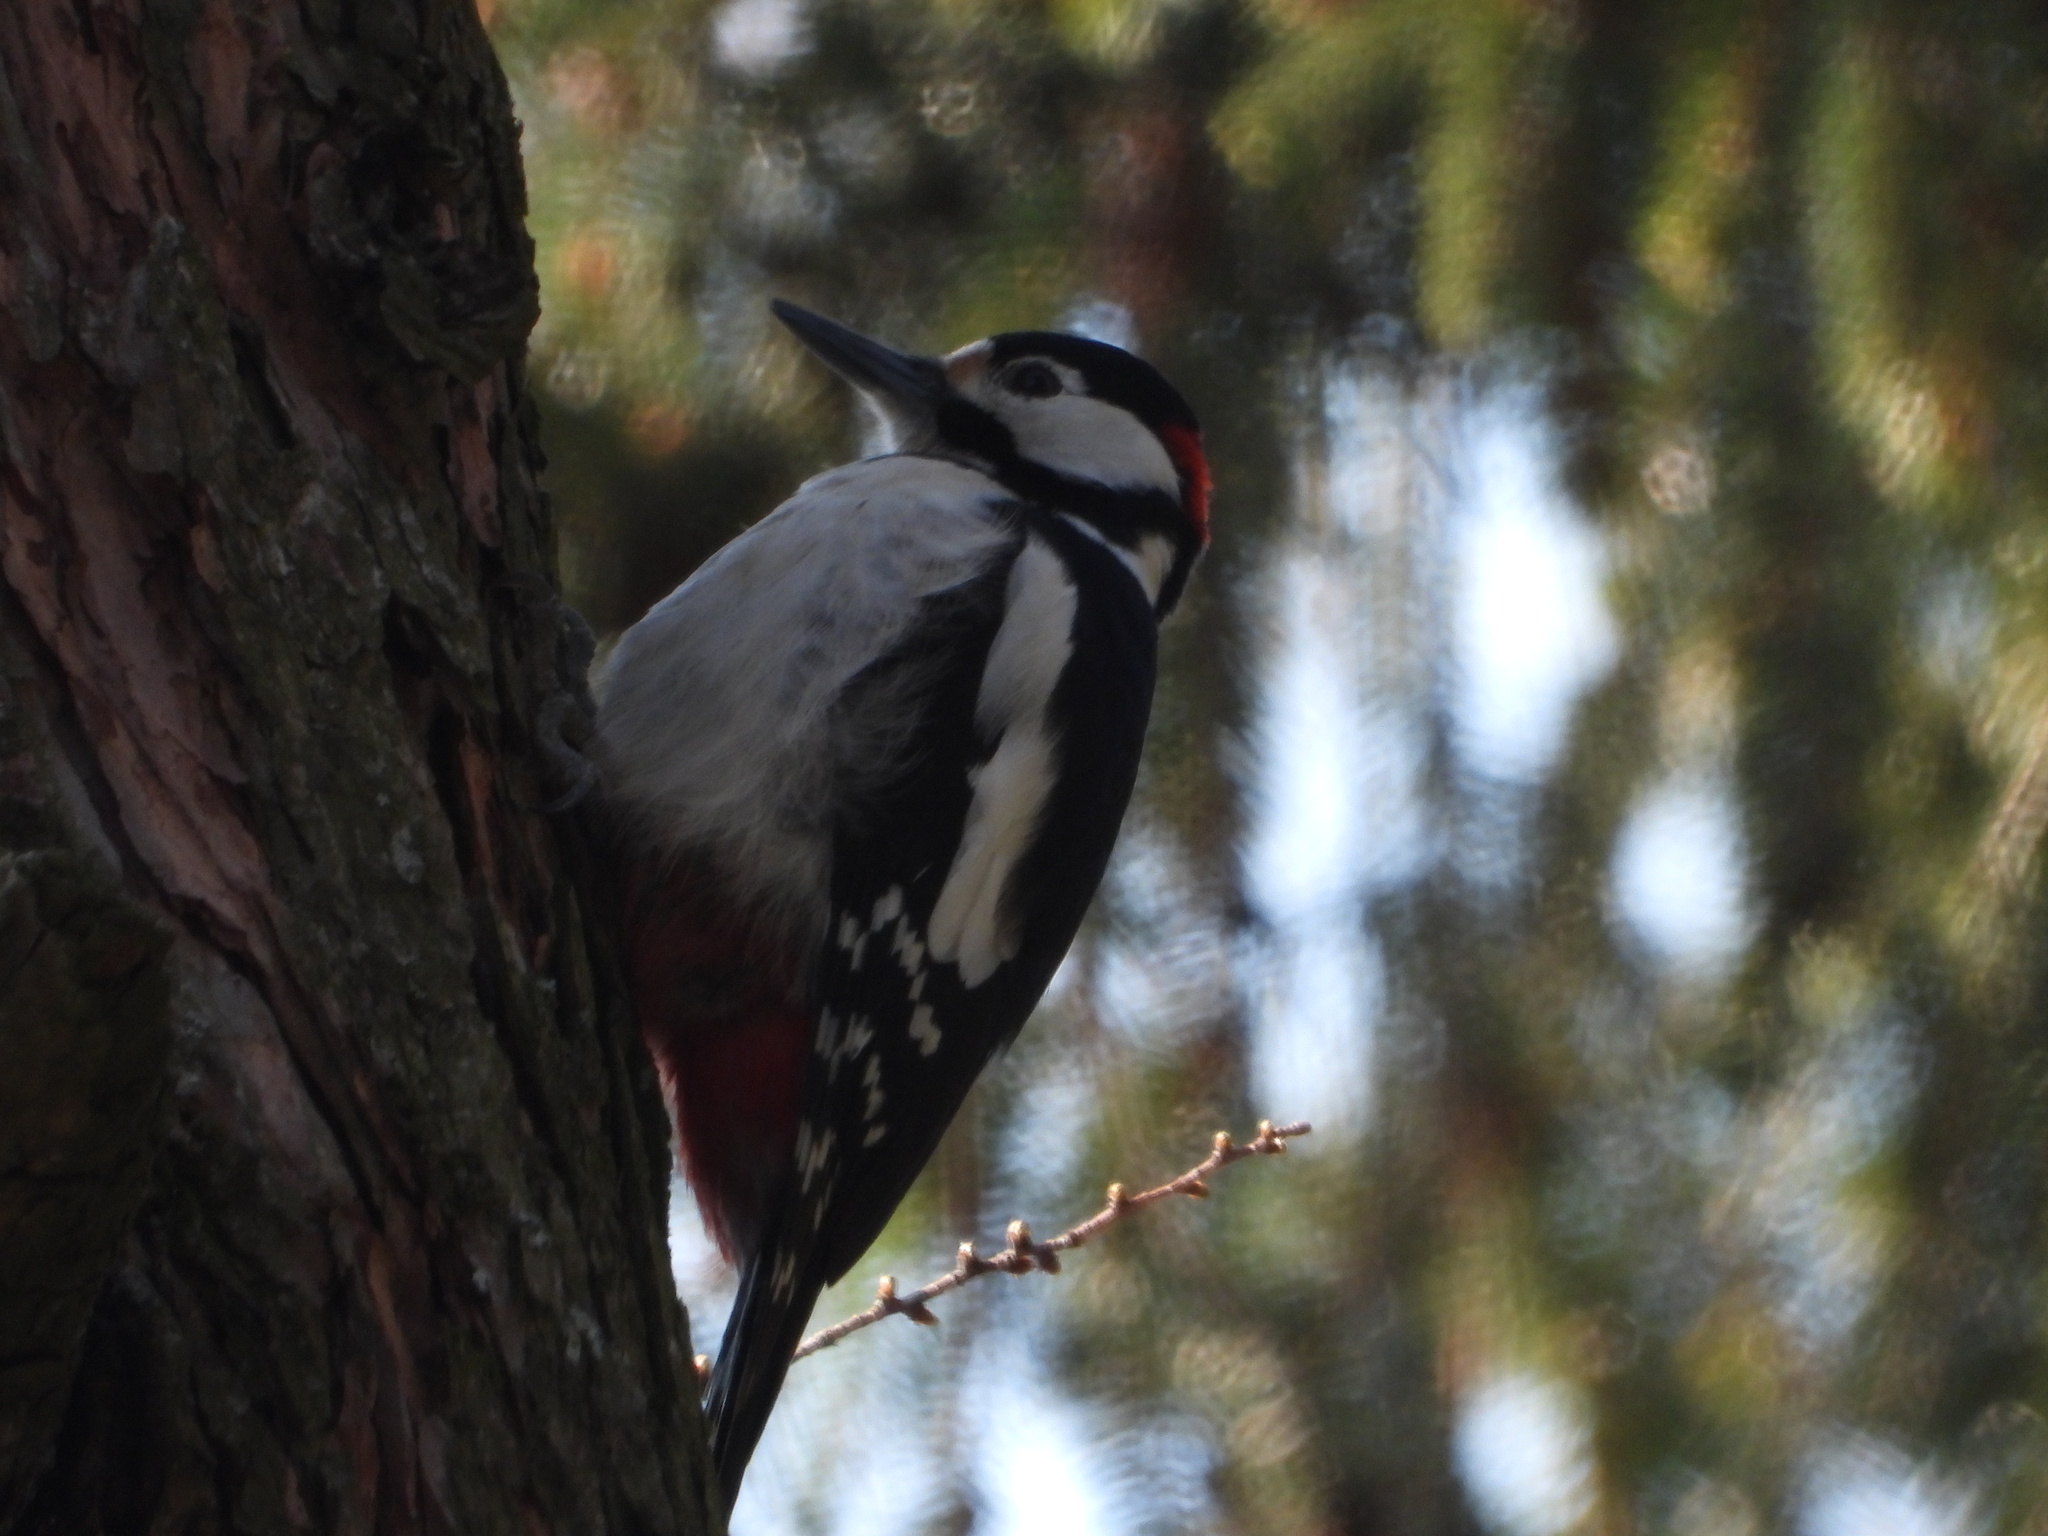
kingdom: Animalia
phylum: Chordata
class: Aves
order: Piciformes
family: Picidae
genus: Dendrocopos
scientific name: Dendrocopos major
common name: Great spotted woodpecker
